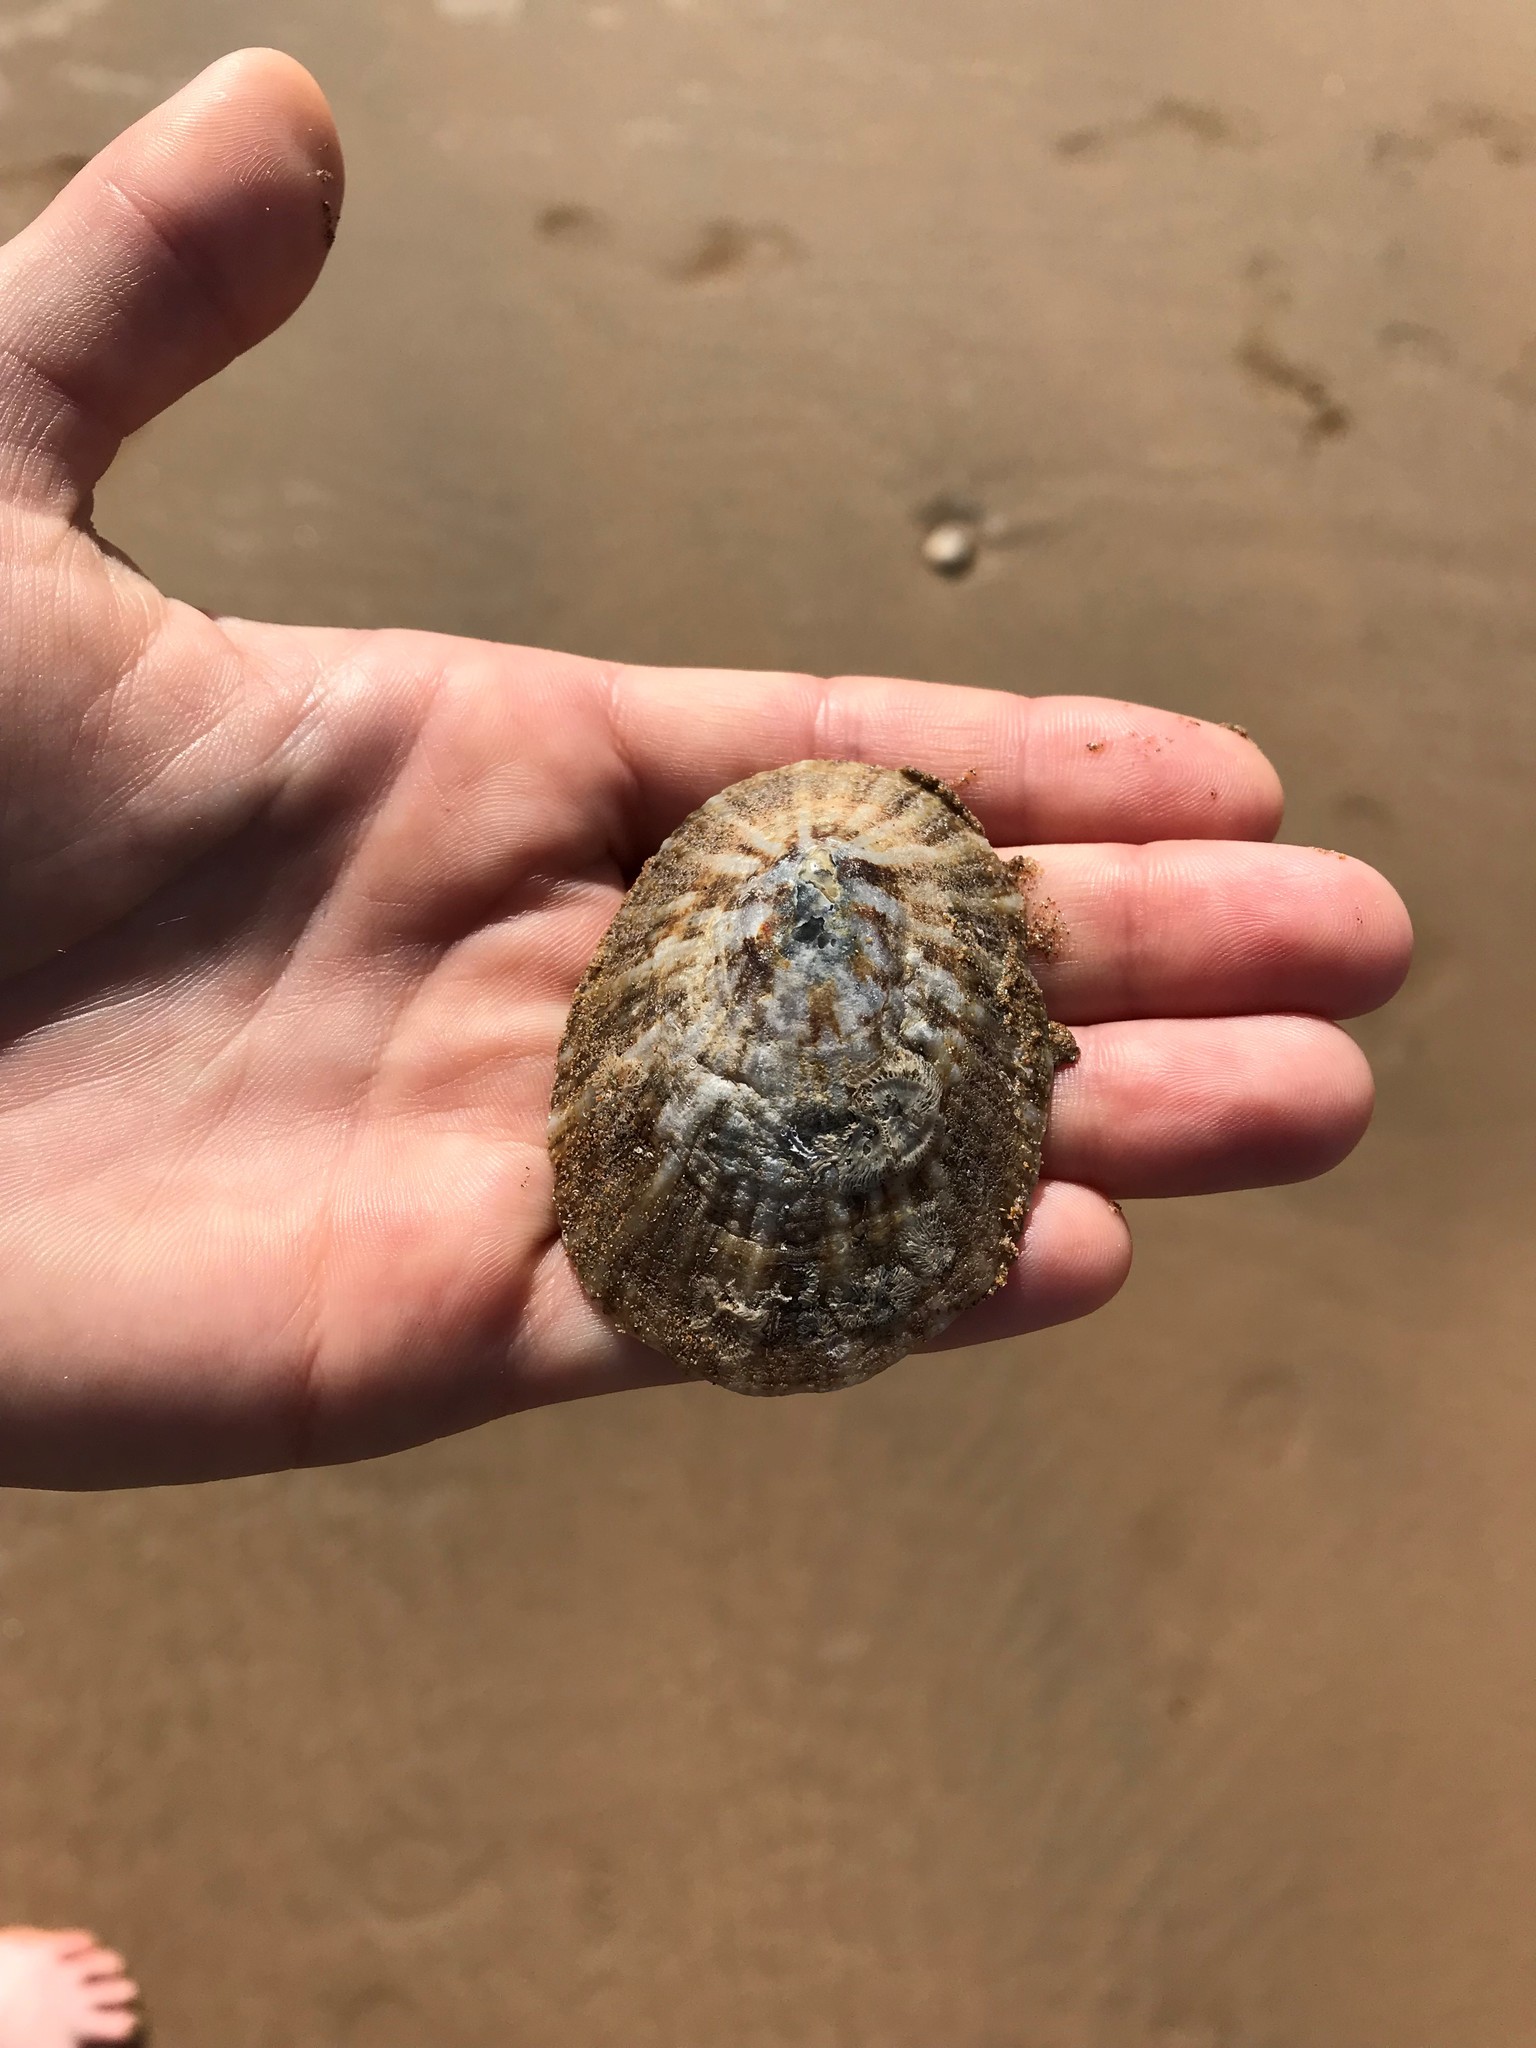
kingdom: Animalia
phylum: Mollusca
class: Gastropoda
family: Patellidae
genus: Cymbula
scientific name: Cymbula safiana
